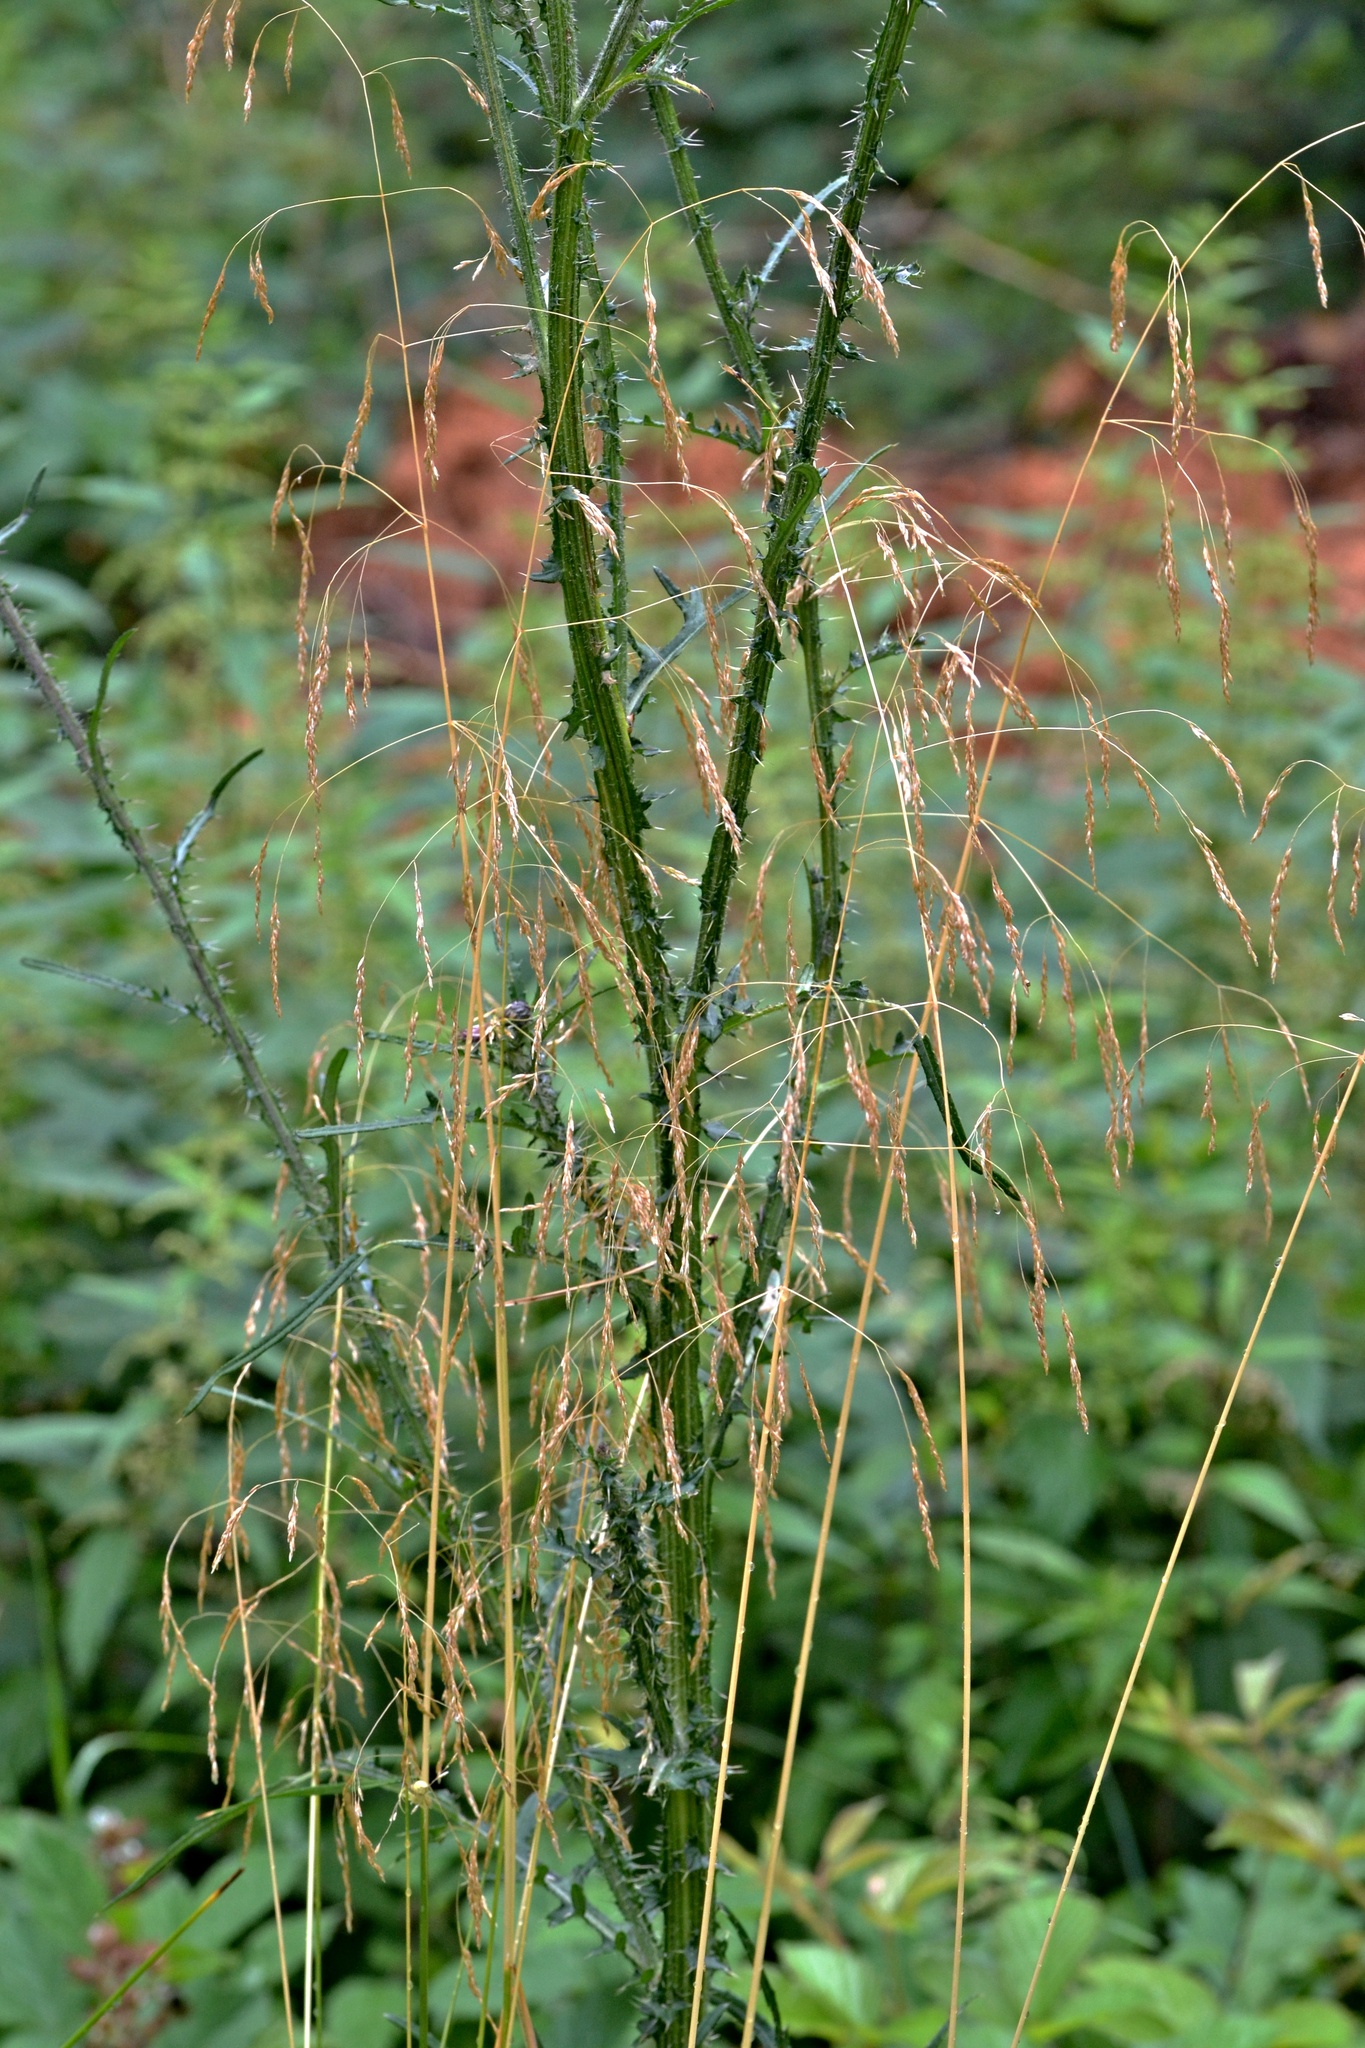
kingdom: Plantae
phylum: Tracheophyta
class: Magnoliopsida
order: Asterales
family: Asteraceae
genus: Cirsium
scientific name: Cirsium palustre
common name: Marsh thistle
